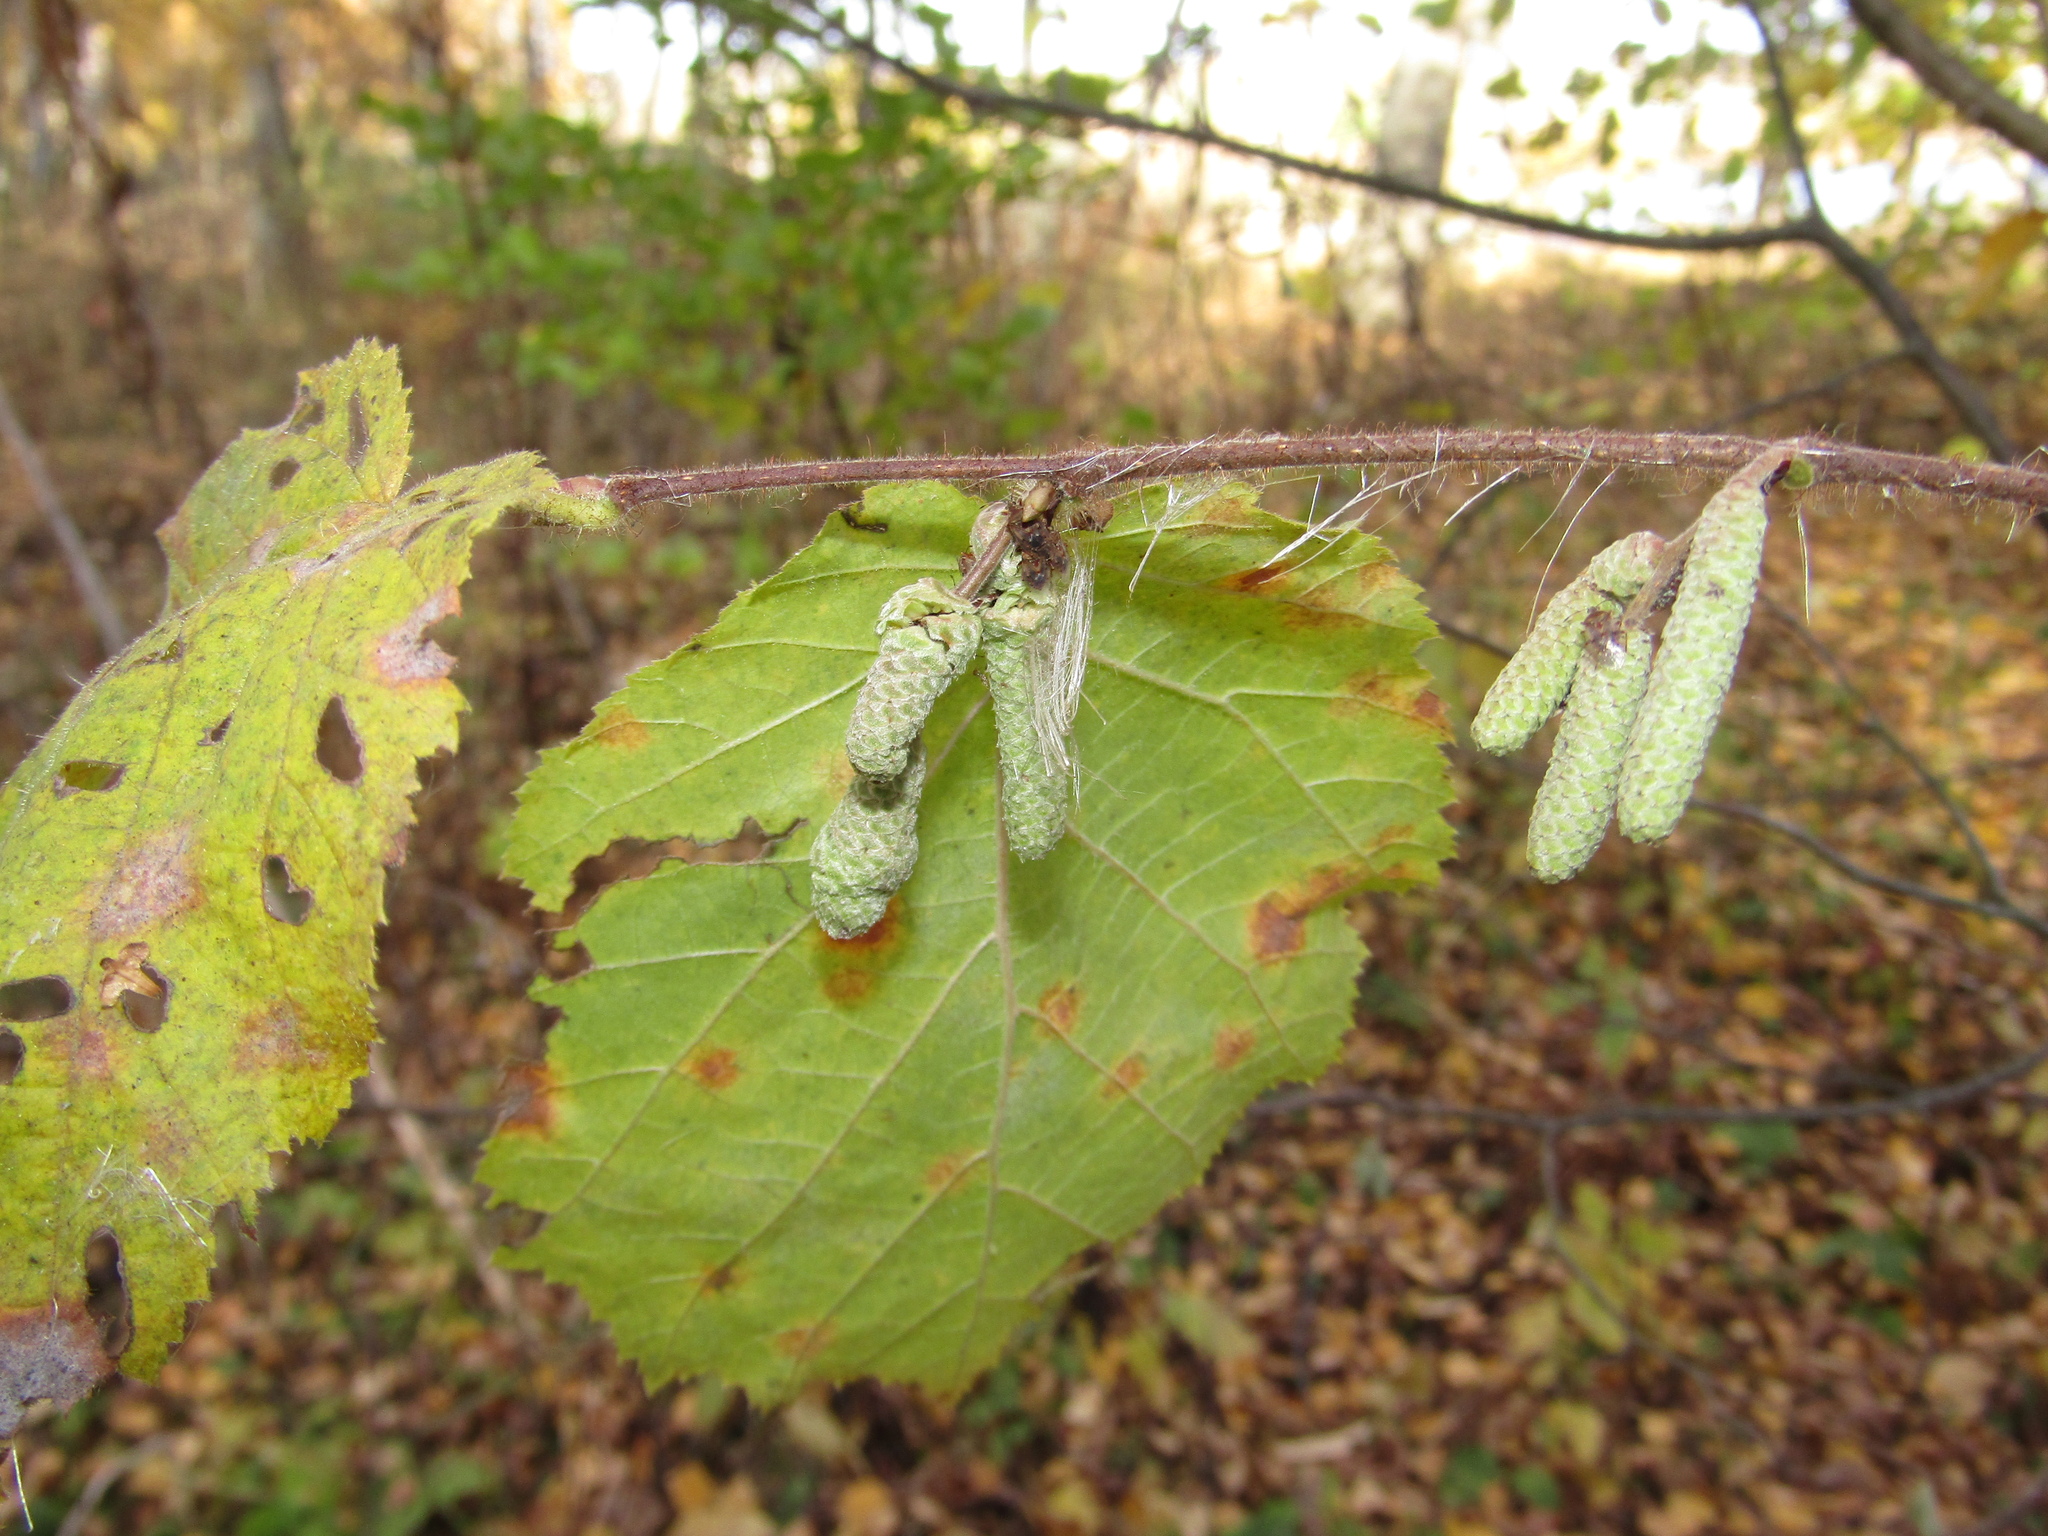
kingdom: Plantae
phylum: Tracheophyta
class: Magnoliopsida
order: Fagales
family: Betulaceae
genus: Corylus
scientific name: Corylus avellana
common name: European hazel
